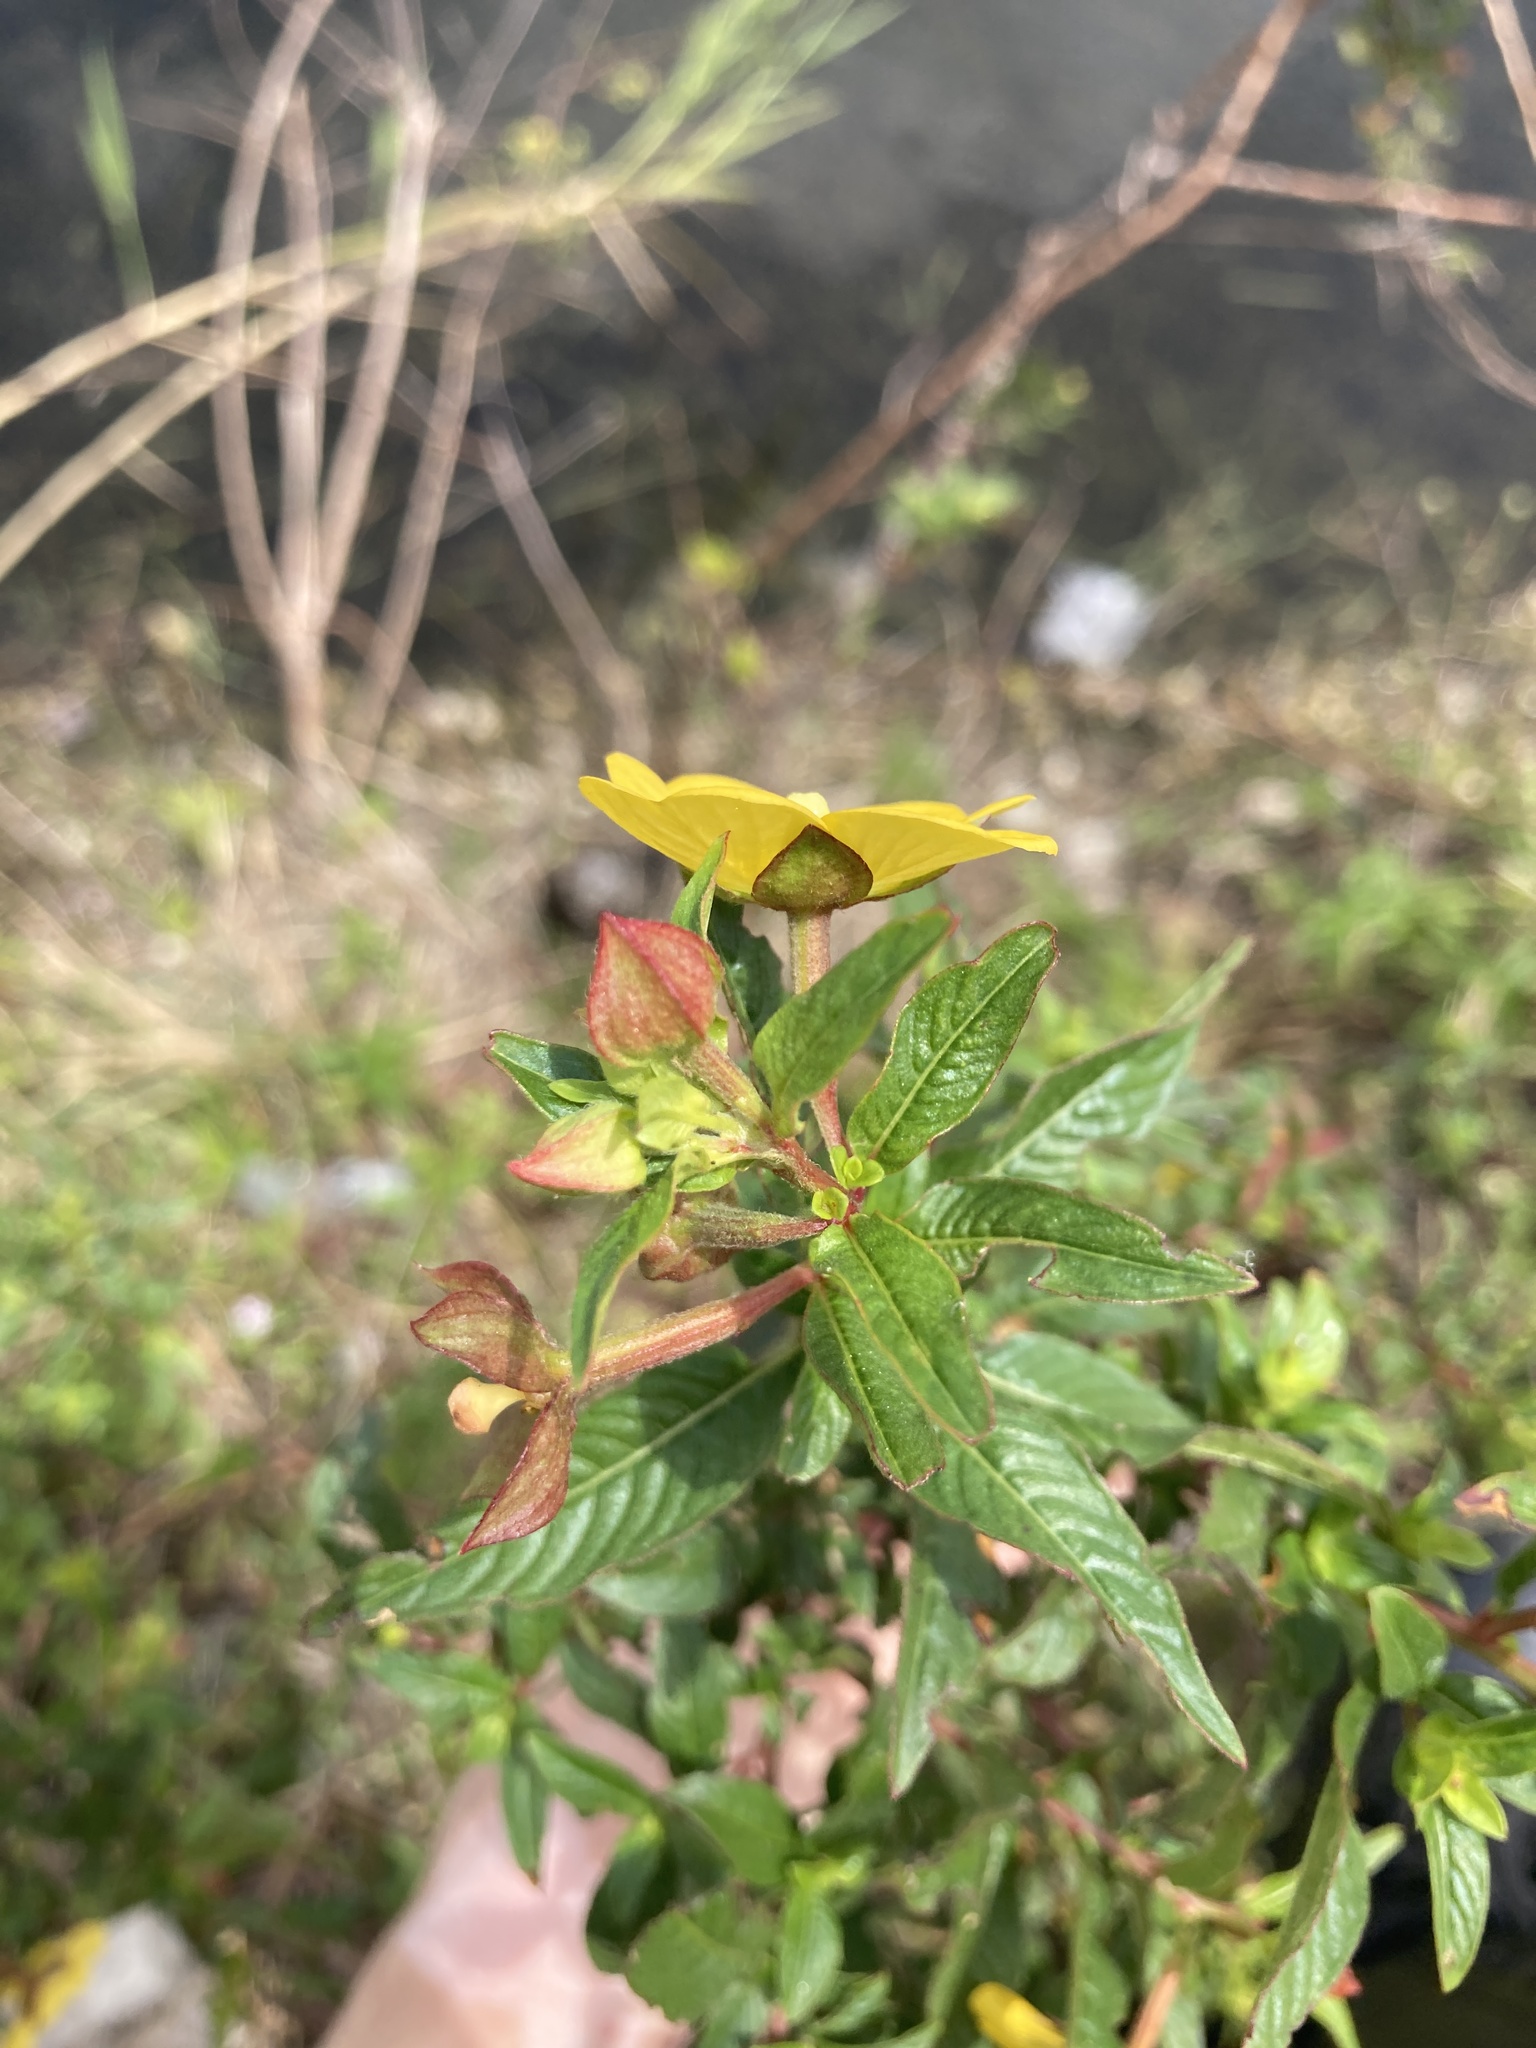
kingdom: Plantae
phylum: Tracheophyta
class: Magnoliopsida
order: Myrtales
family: Onagraceae
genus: Ludwigia
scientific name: Ludwigia octovalvis
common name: Water-primrose
